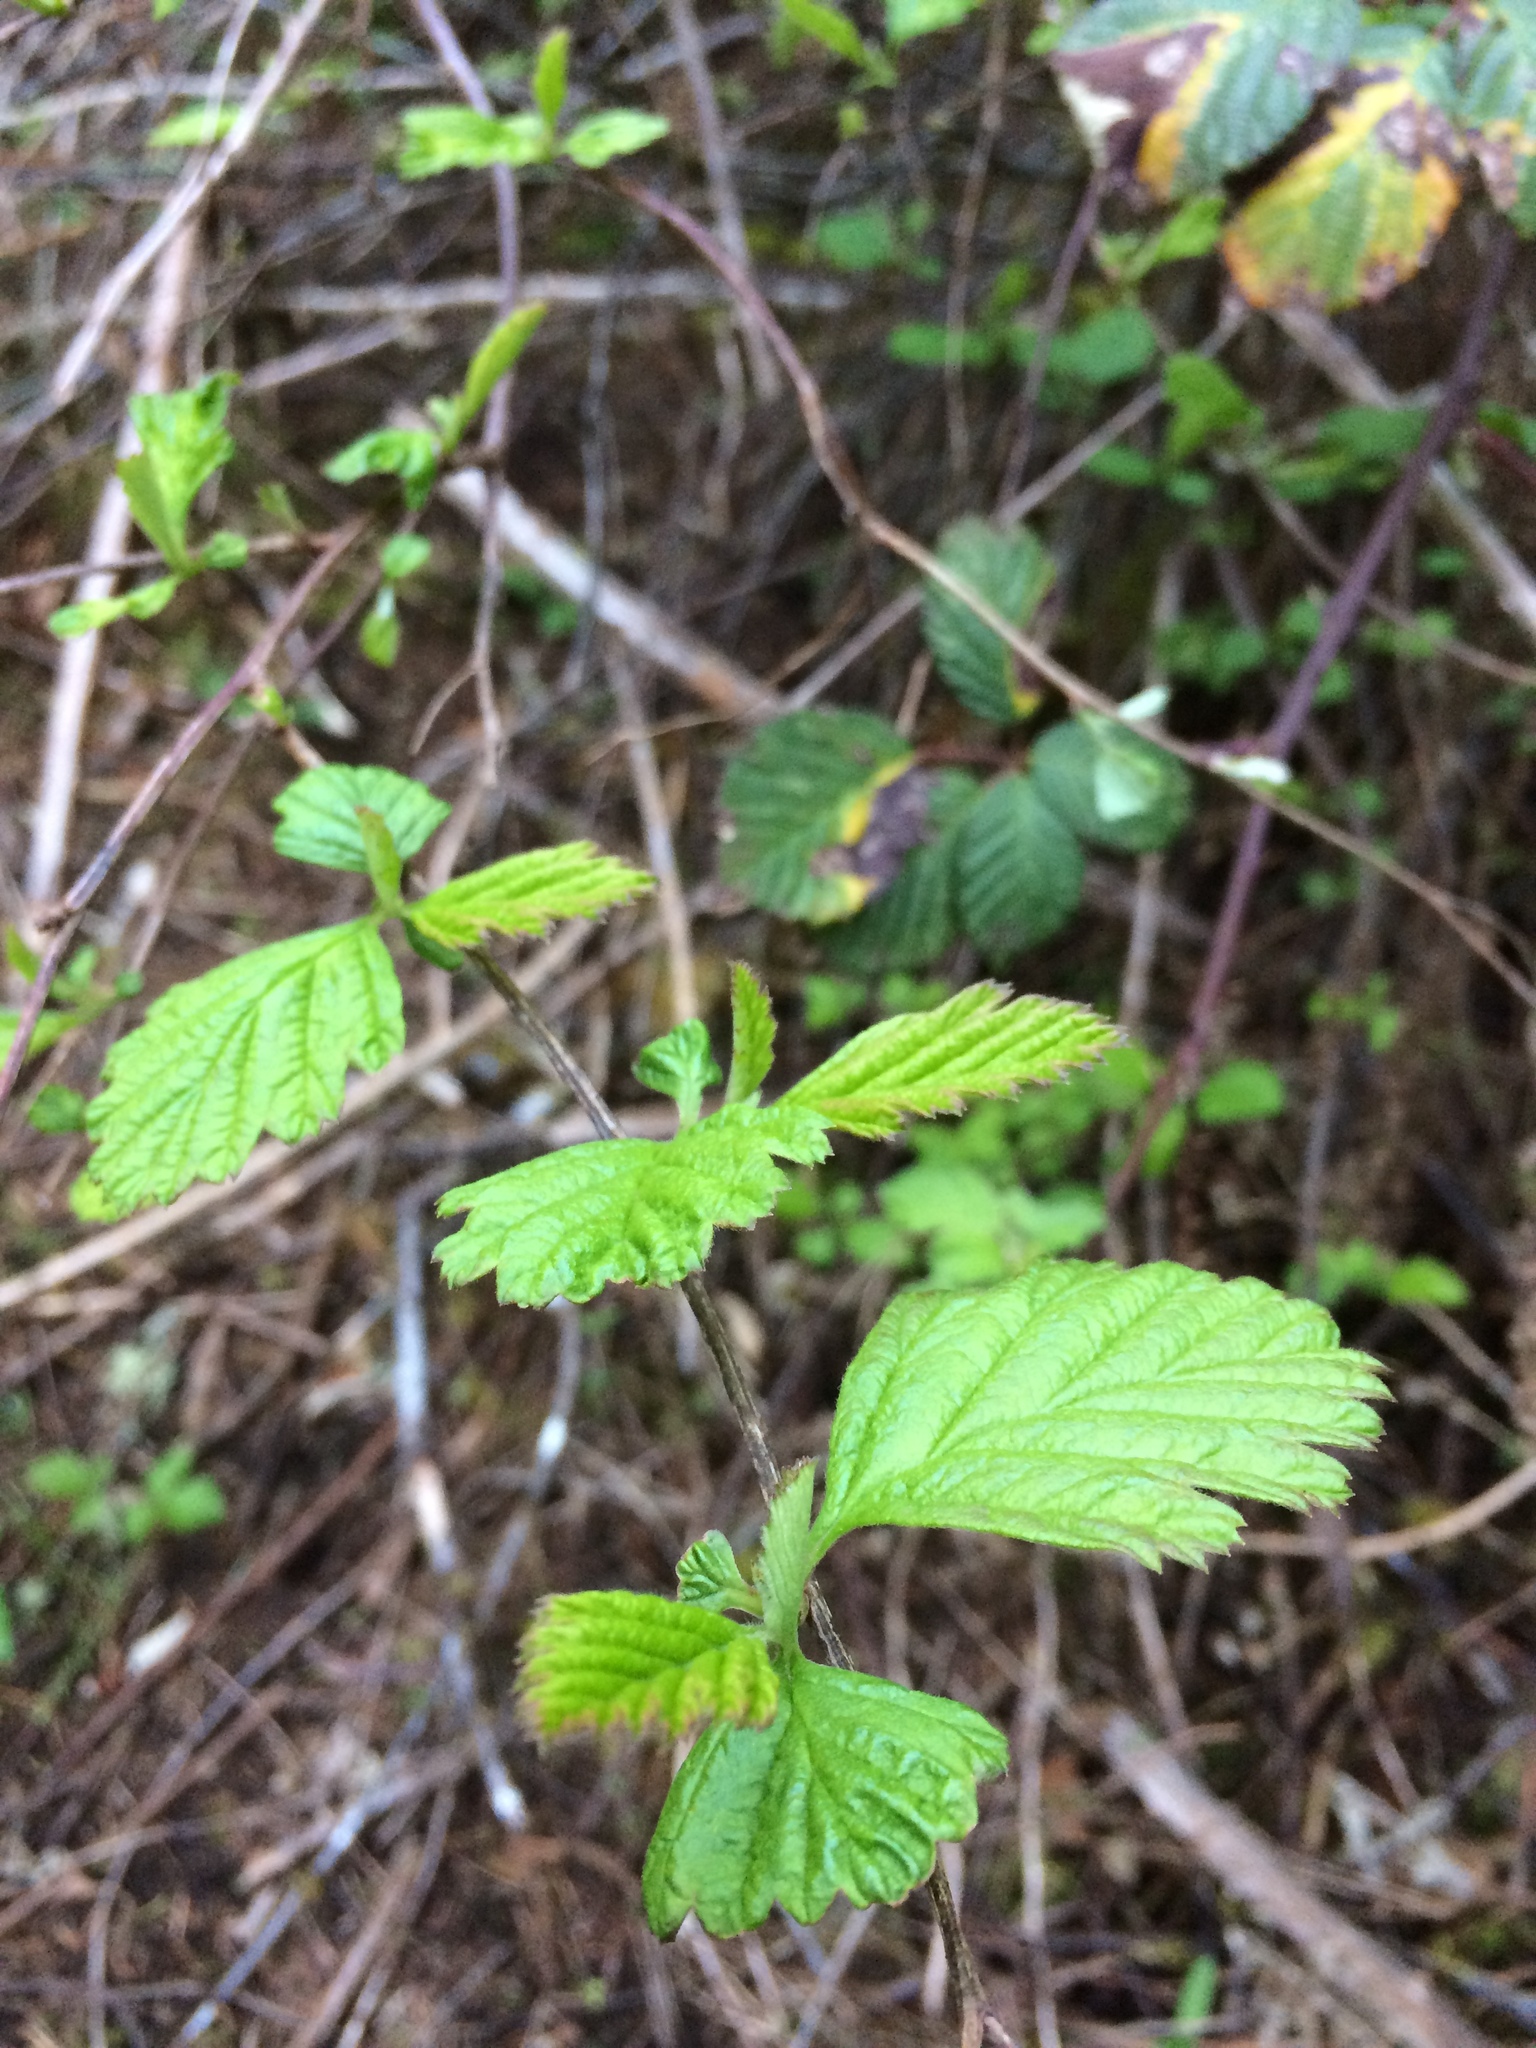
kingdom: Plantae
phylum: Tracheophyta
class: Magnoliopsida
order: Rosales
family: Rosaceae
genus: Holodiscus
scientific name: Holodiscus discolor
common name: Oceanspray
